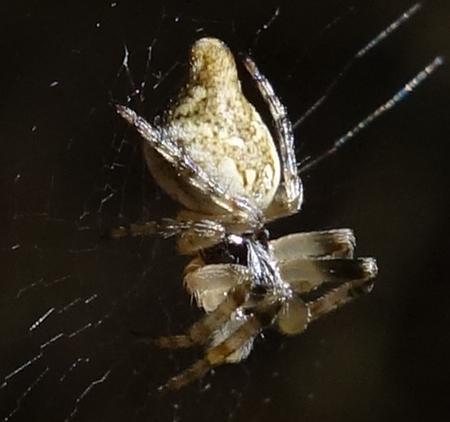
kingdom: Animalia
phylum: Arthropoda
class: Arachnida
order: Araneae
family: Araneidae
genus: Cyclosa
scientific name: Cyclosa conica
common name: Conical trashline orbweaver
